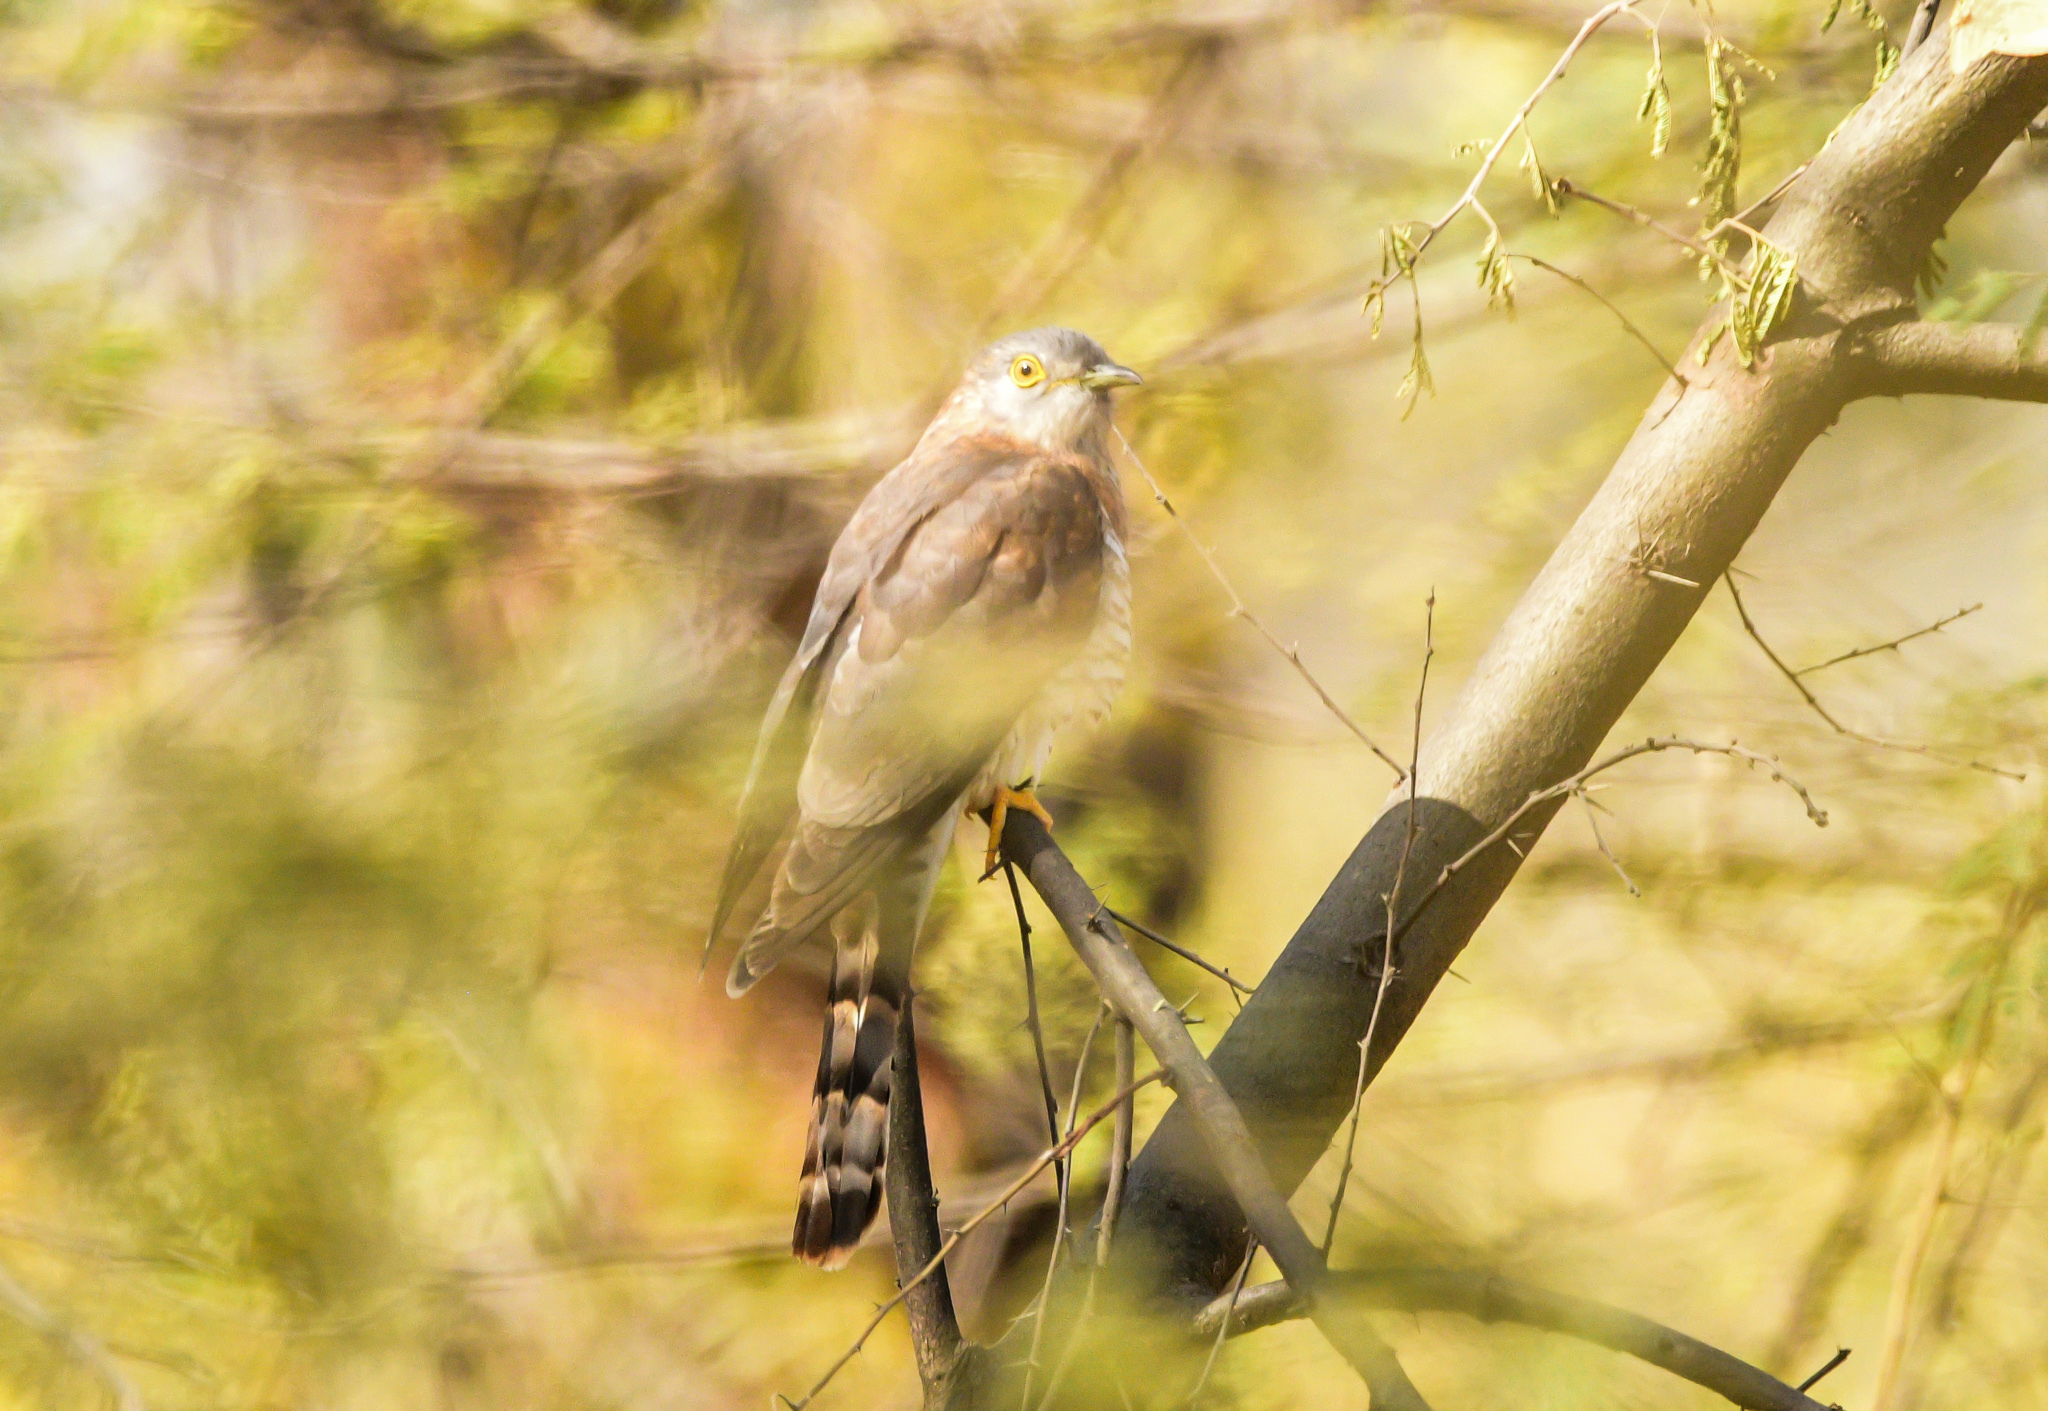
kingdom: Animalia
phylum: Chordata
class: Aves
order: Cuculiformes
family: Cuculidae
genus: Cuculus
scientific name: Cuculus varius
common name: Common hawk cuckoo
